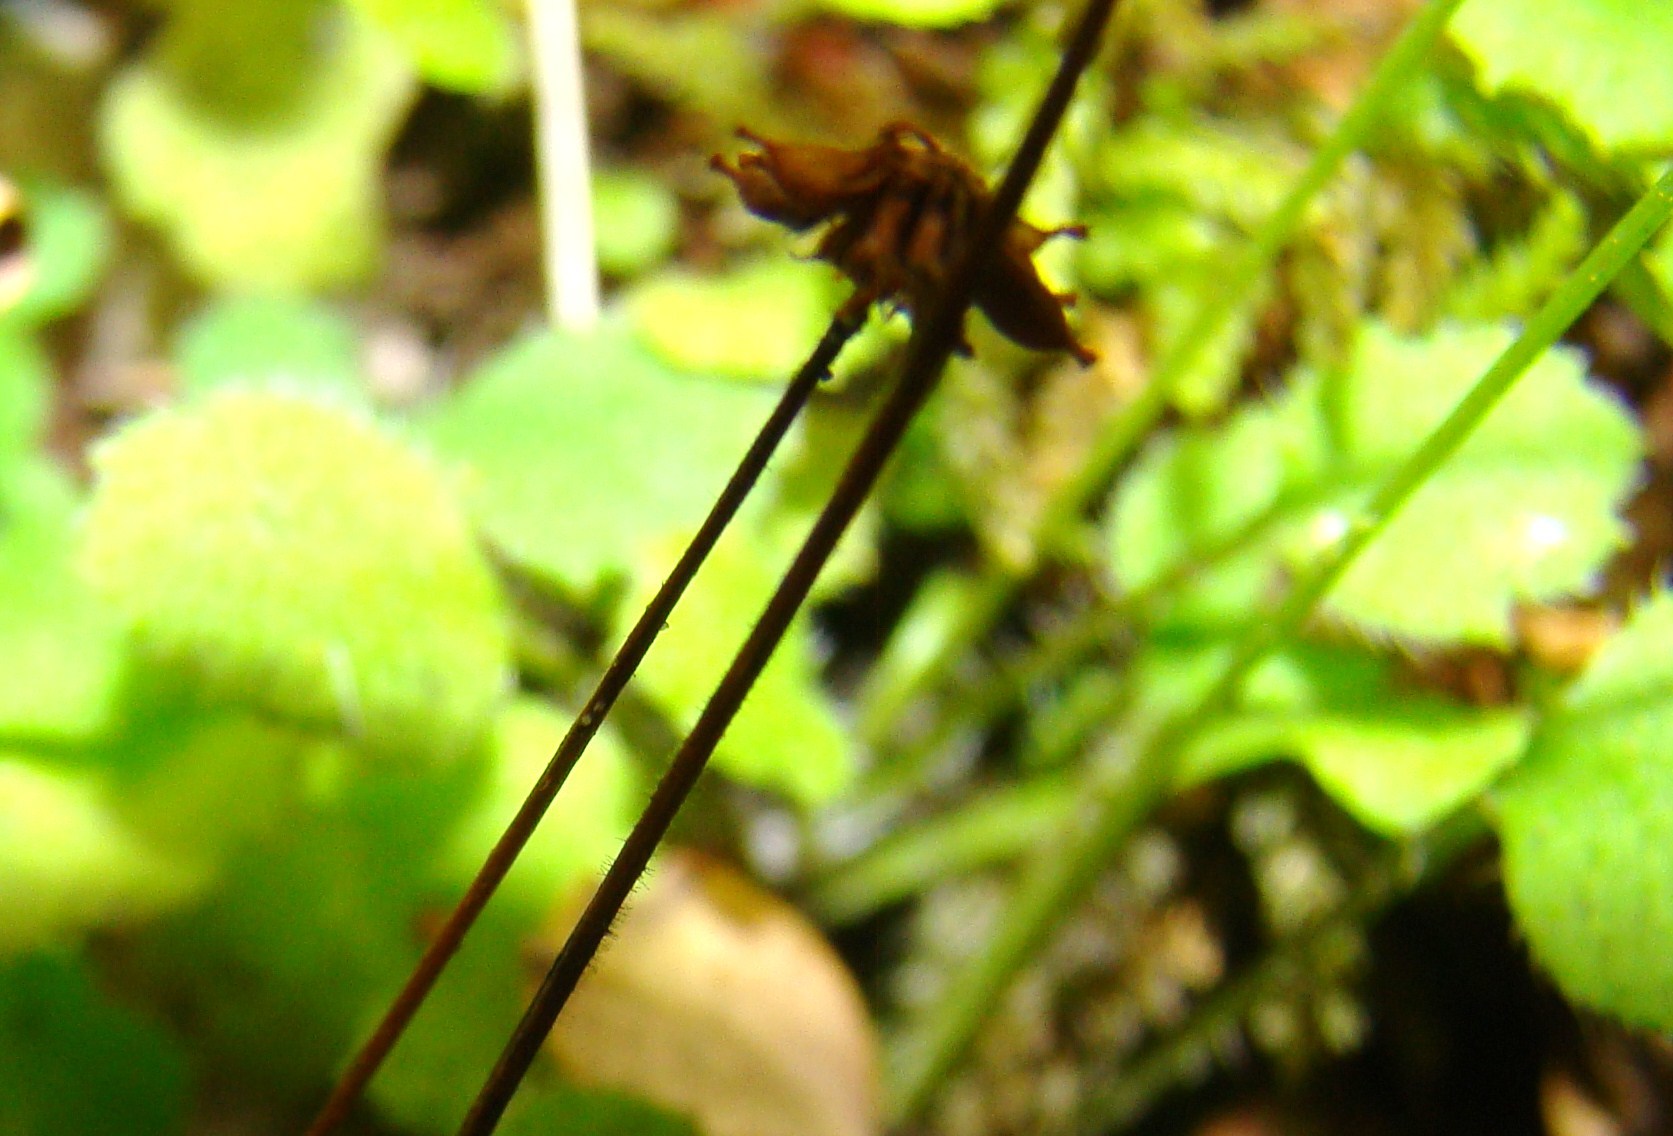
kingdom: Plantae
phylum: Tracheophyta
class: Magnoliopsida
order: Asterales
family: Asteraceae
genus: Lagenophora
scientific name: Lagenophora strangulata
